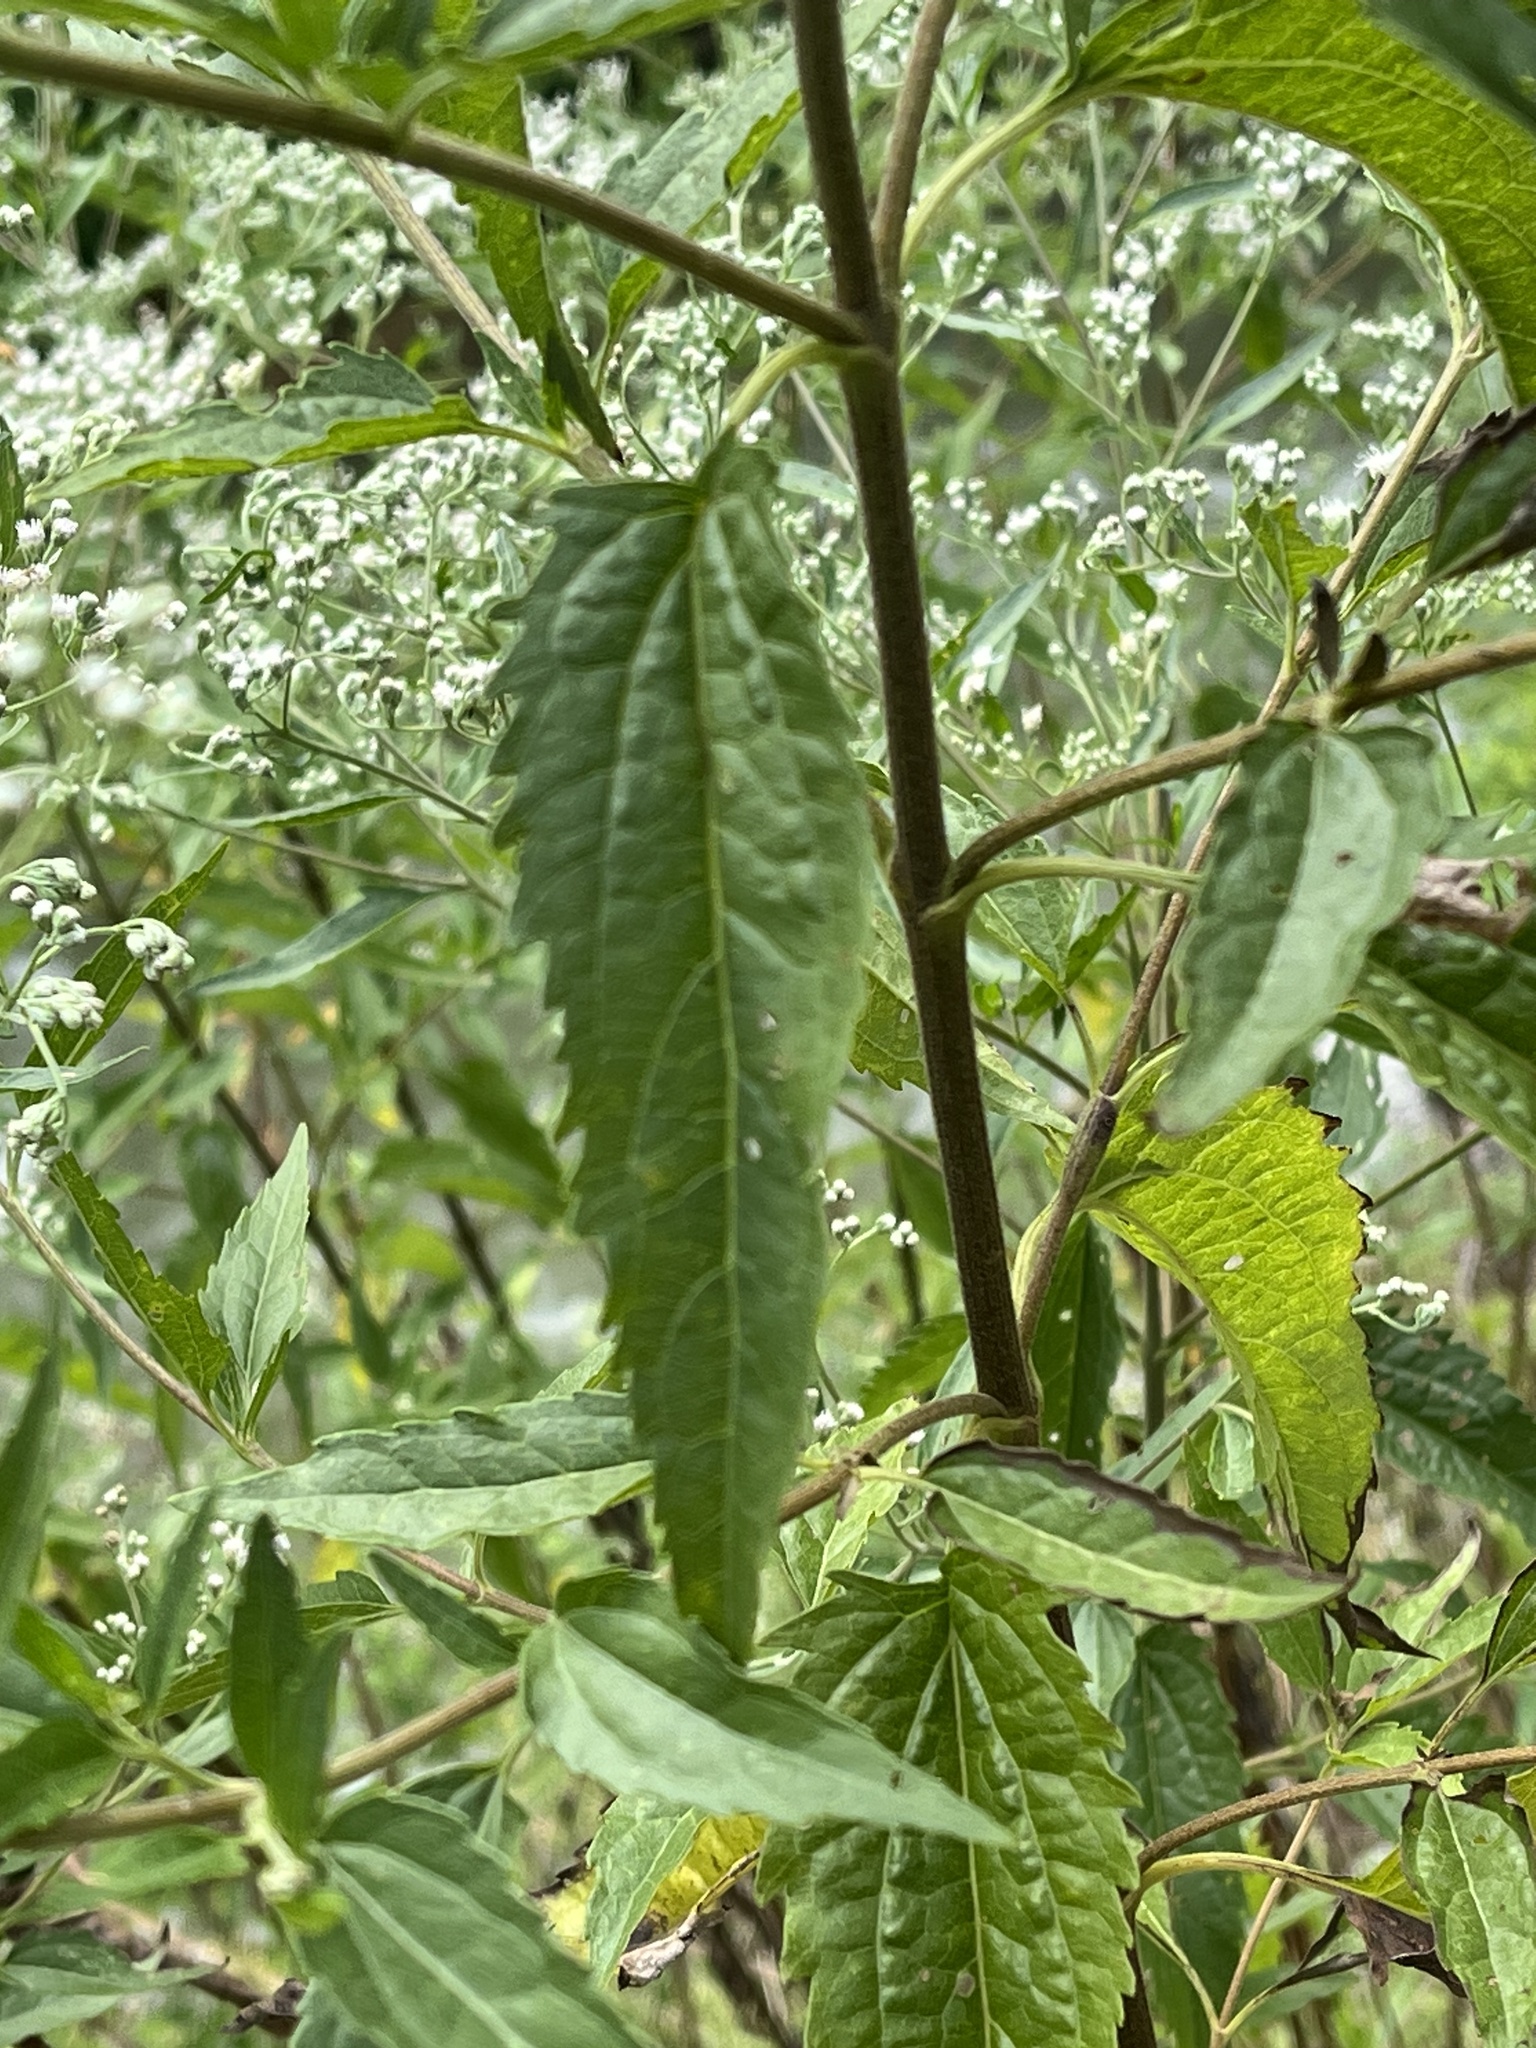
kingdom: Plantae
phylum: Tracheophyta
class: Magnoliopsida
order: Asterales
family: Asteraceae
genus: Eupatorium
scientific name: Eupatorium serotinum
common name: Late boneset
